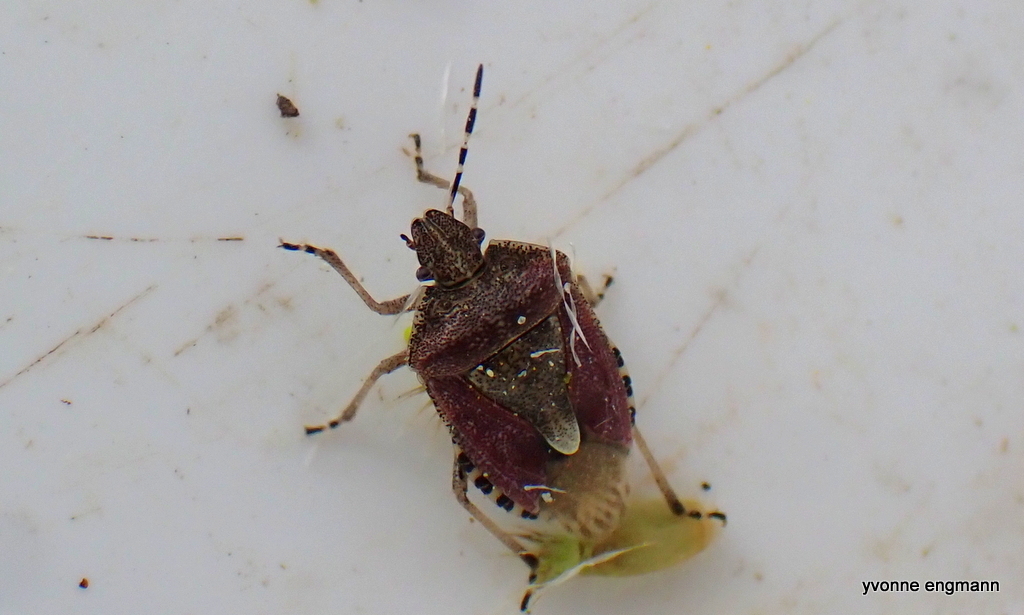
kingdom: Animalia
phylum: Arthropoda
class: Insecta
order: Hemiptera
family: Pentatomidae
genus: Dolycoris
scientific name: Dolycoris baccarum
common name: Sloe bug
